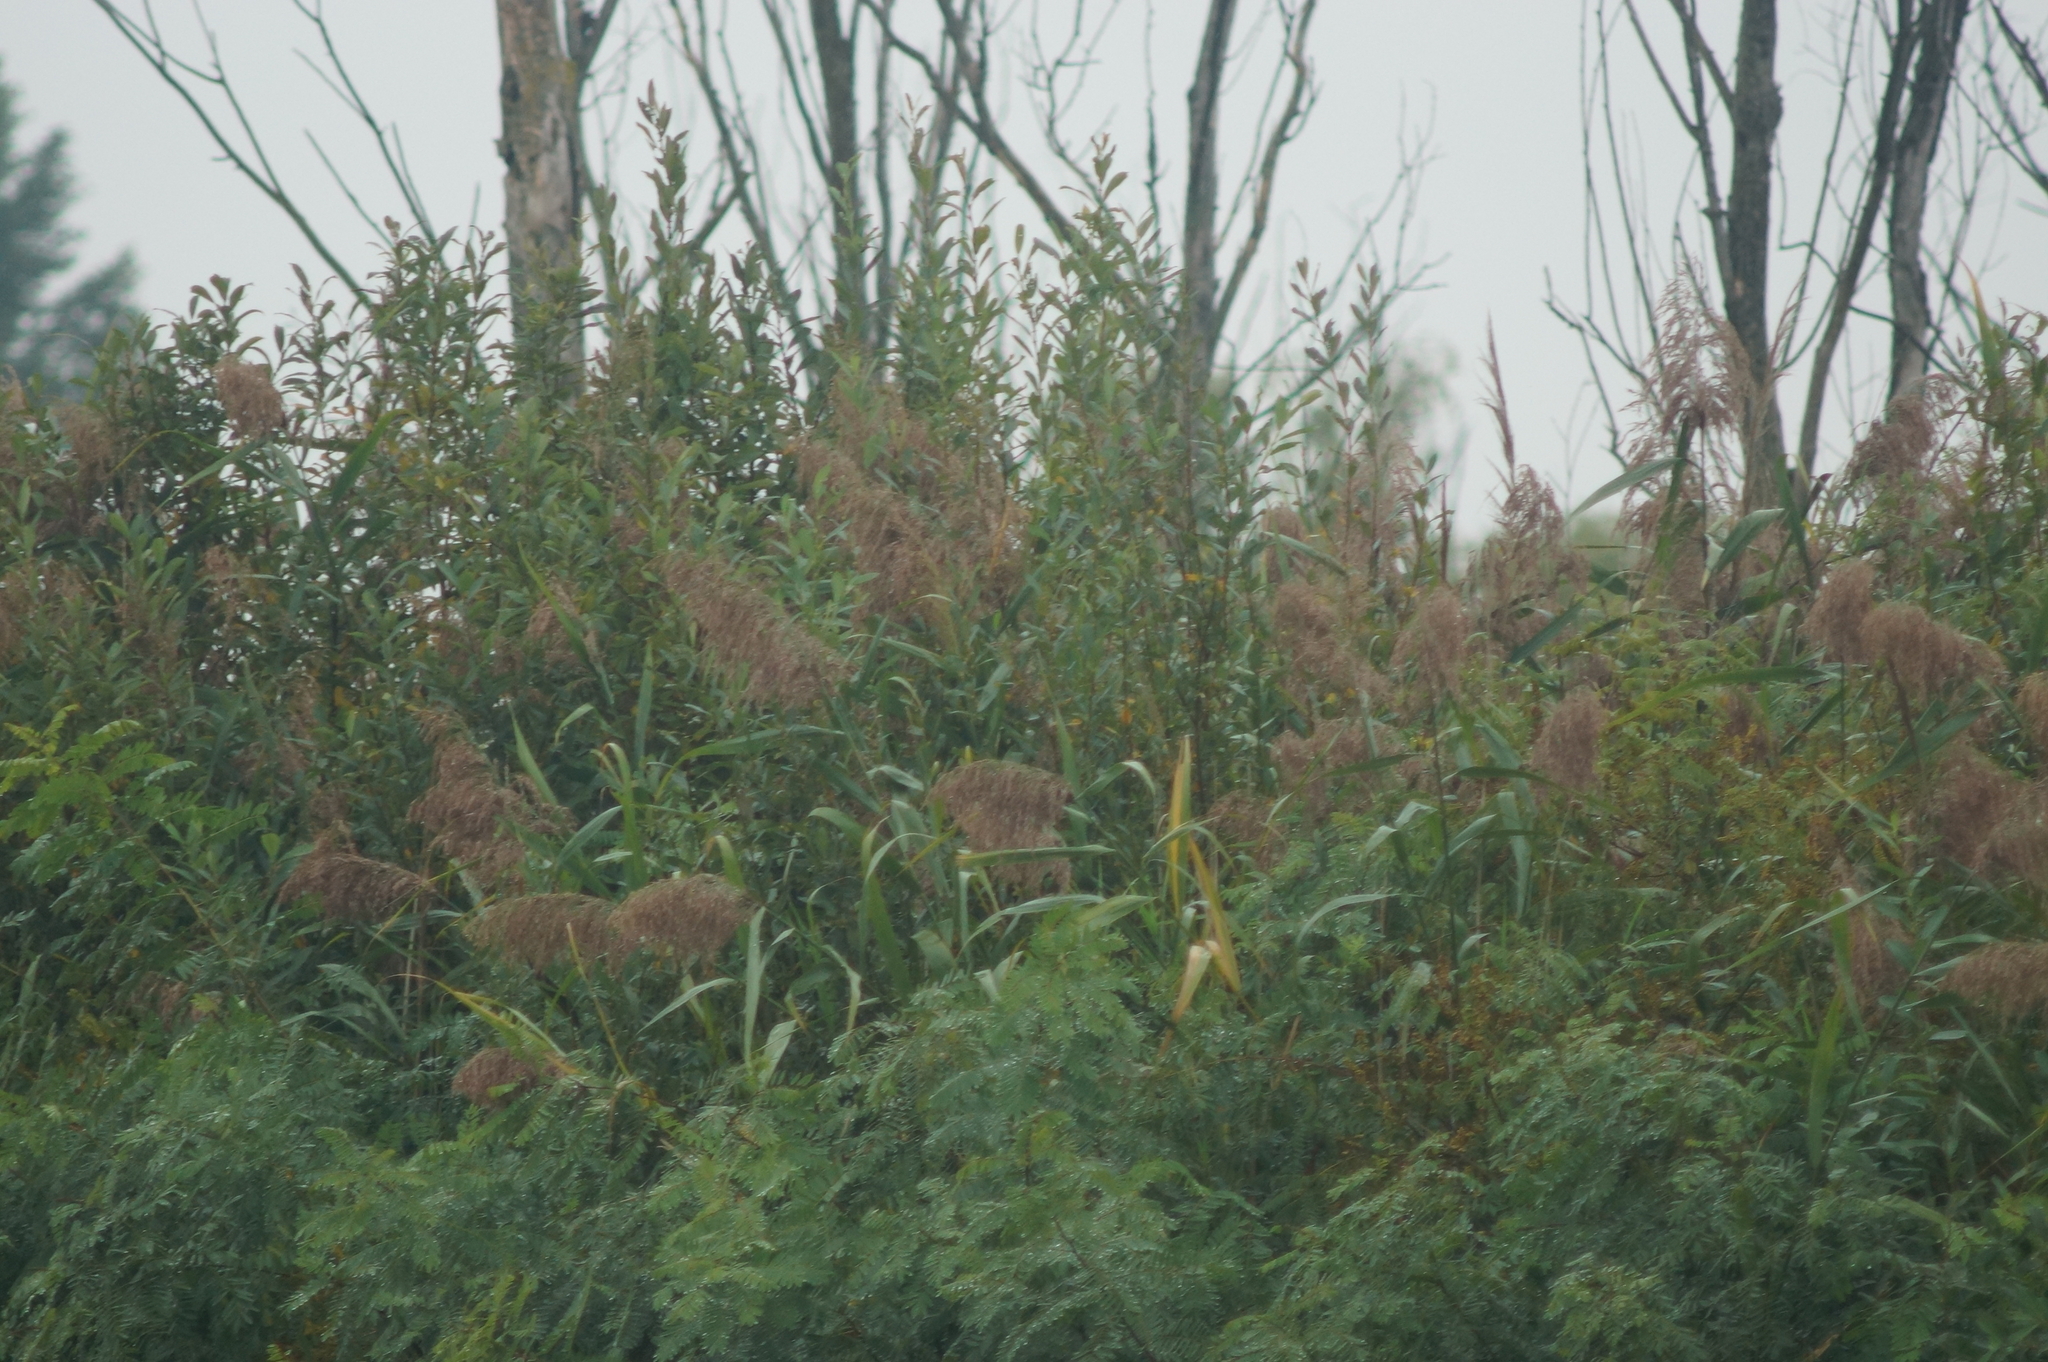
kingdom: Plantae
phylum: Tracheophyta
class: Liliopsida
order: Poales
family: Poaceae
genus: Phragmites
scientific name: Phragmites australis
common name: Common reed
